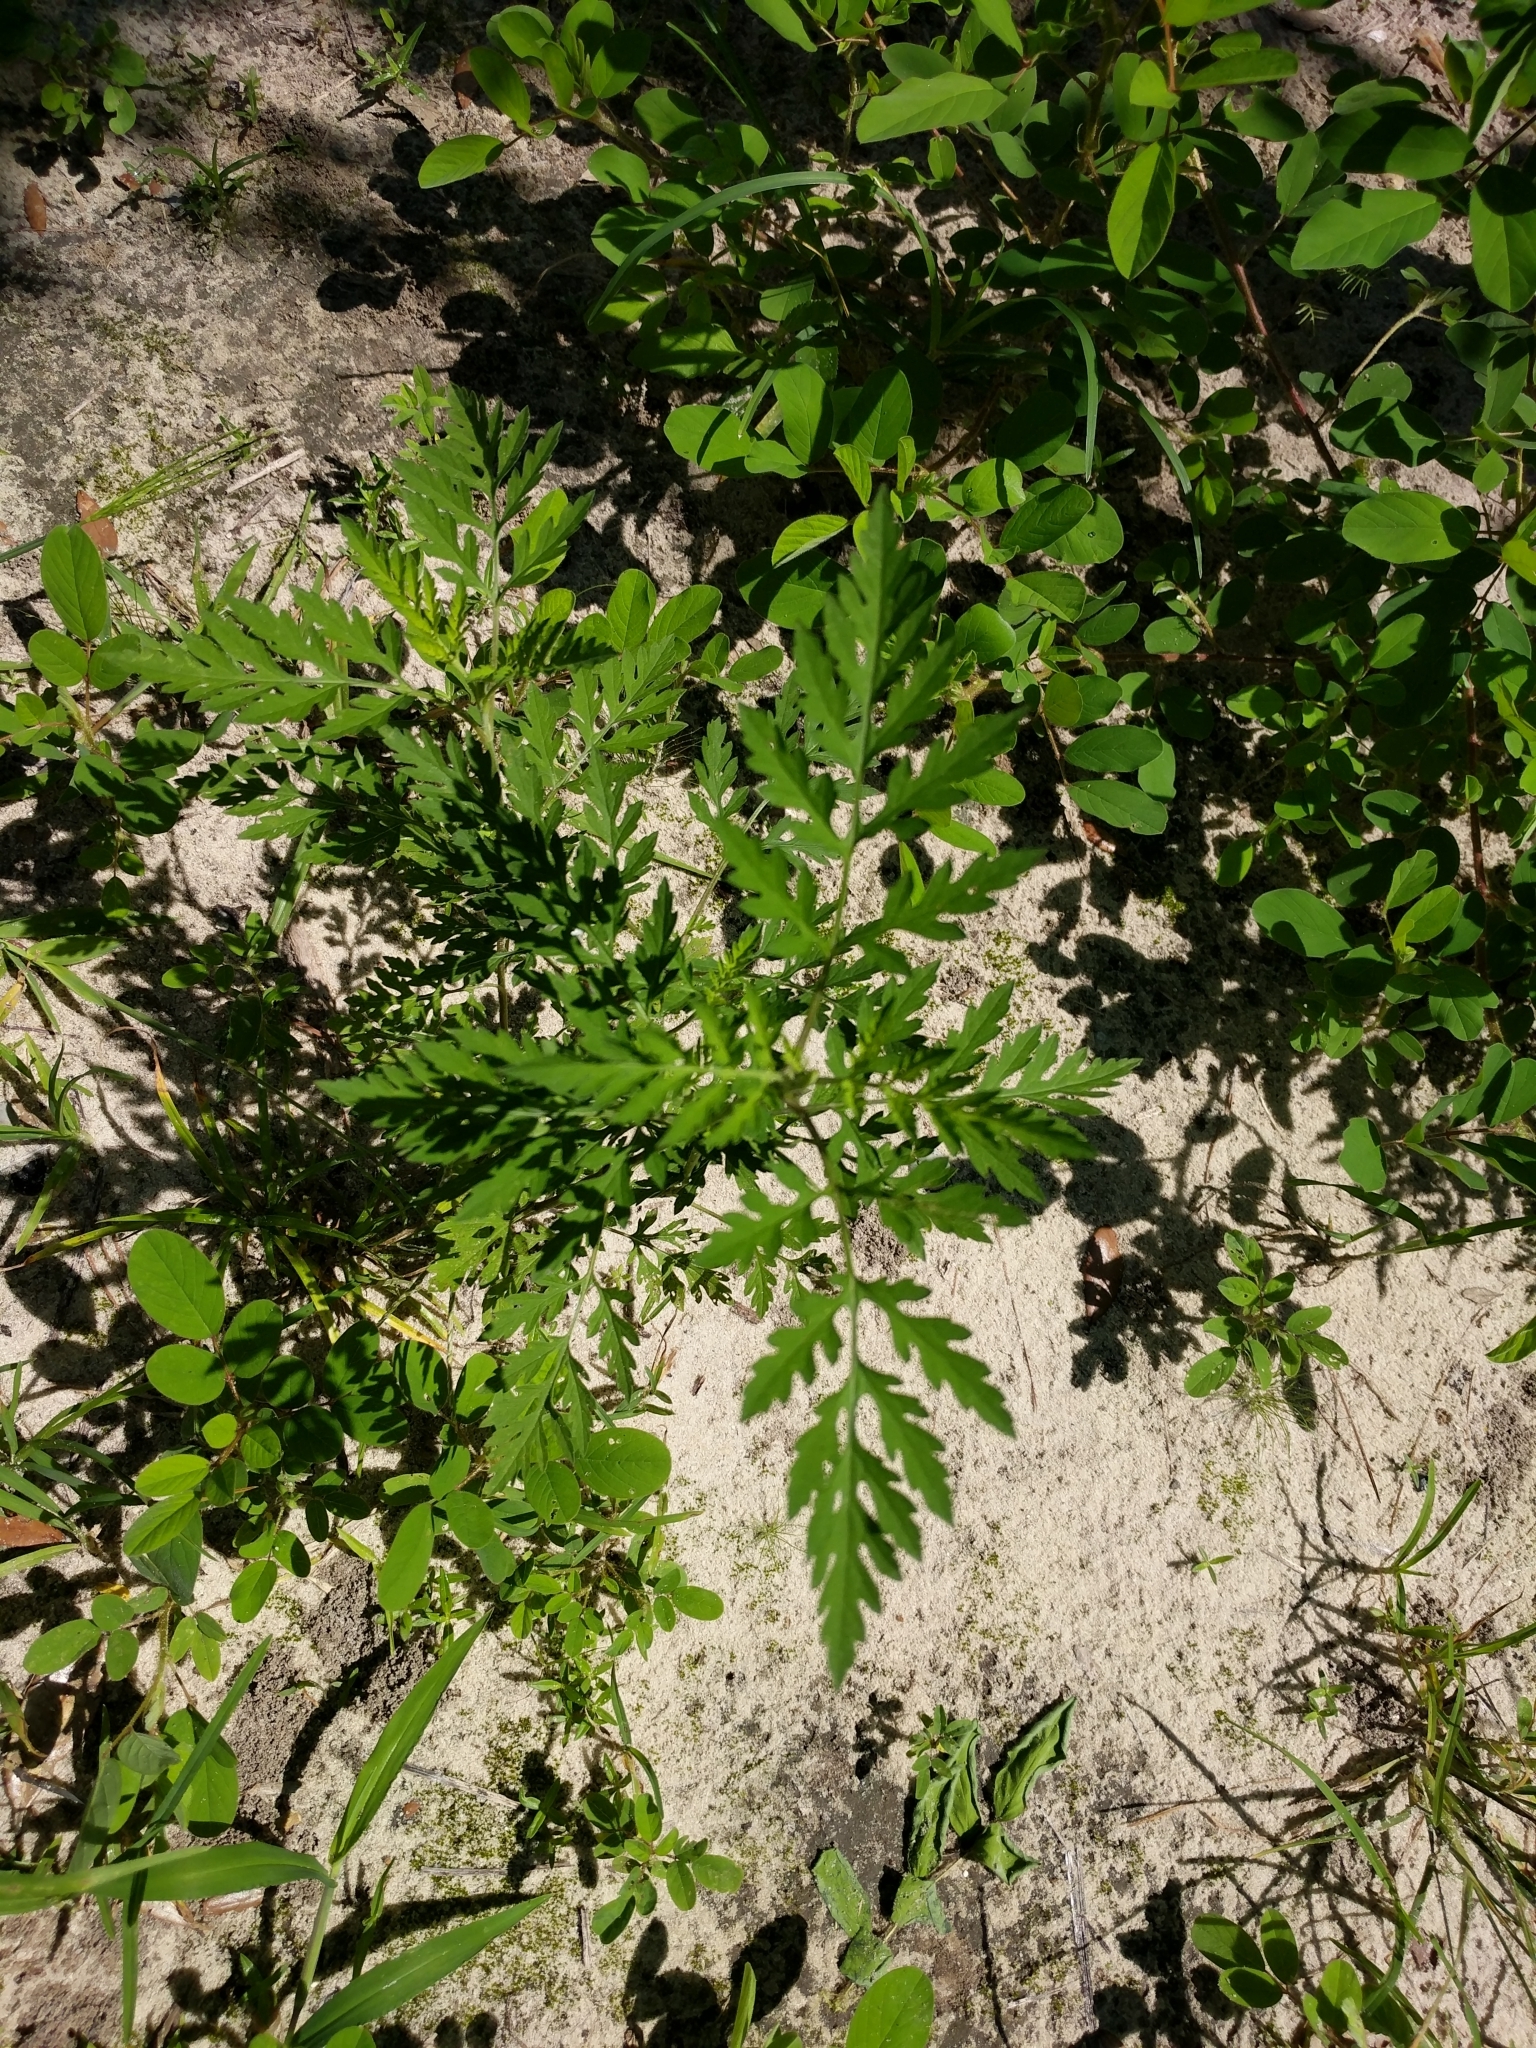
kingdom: Plantae
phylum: Tracheophyta
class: Magnoliopsida
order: Asterales
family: Asteraceae
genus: Ambrosia
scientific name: Ambrosia artemisiifolia
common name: Annual ragweed
